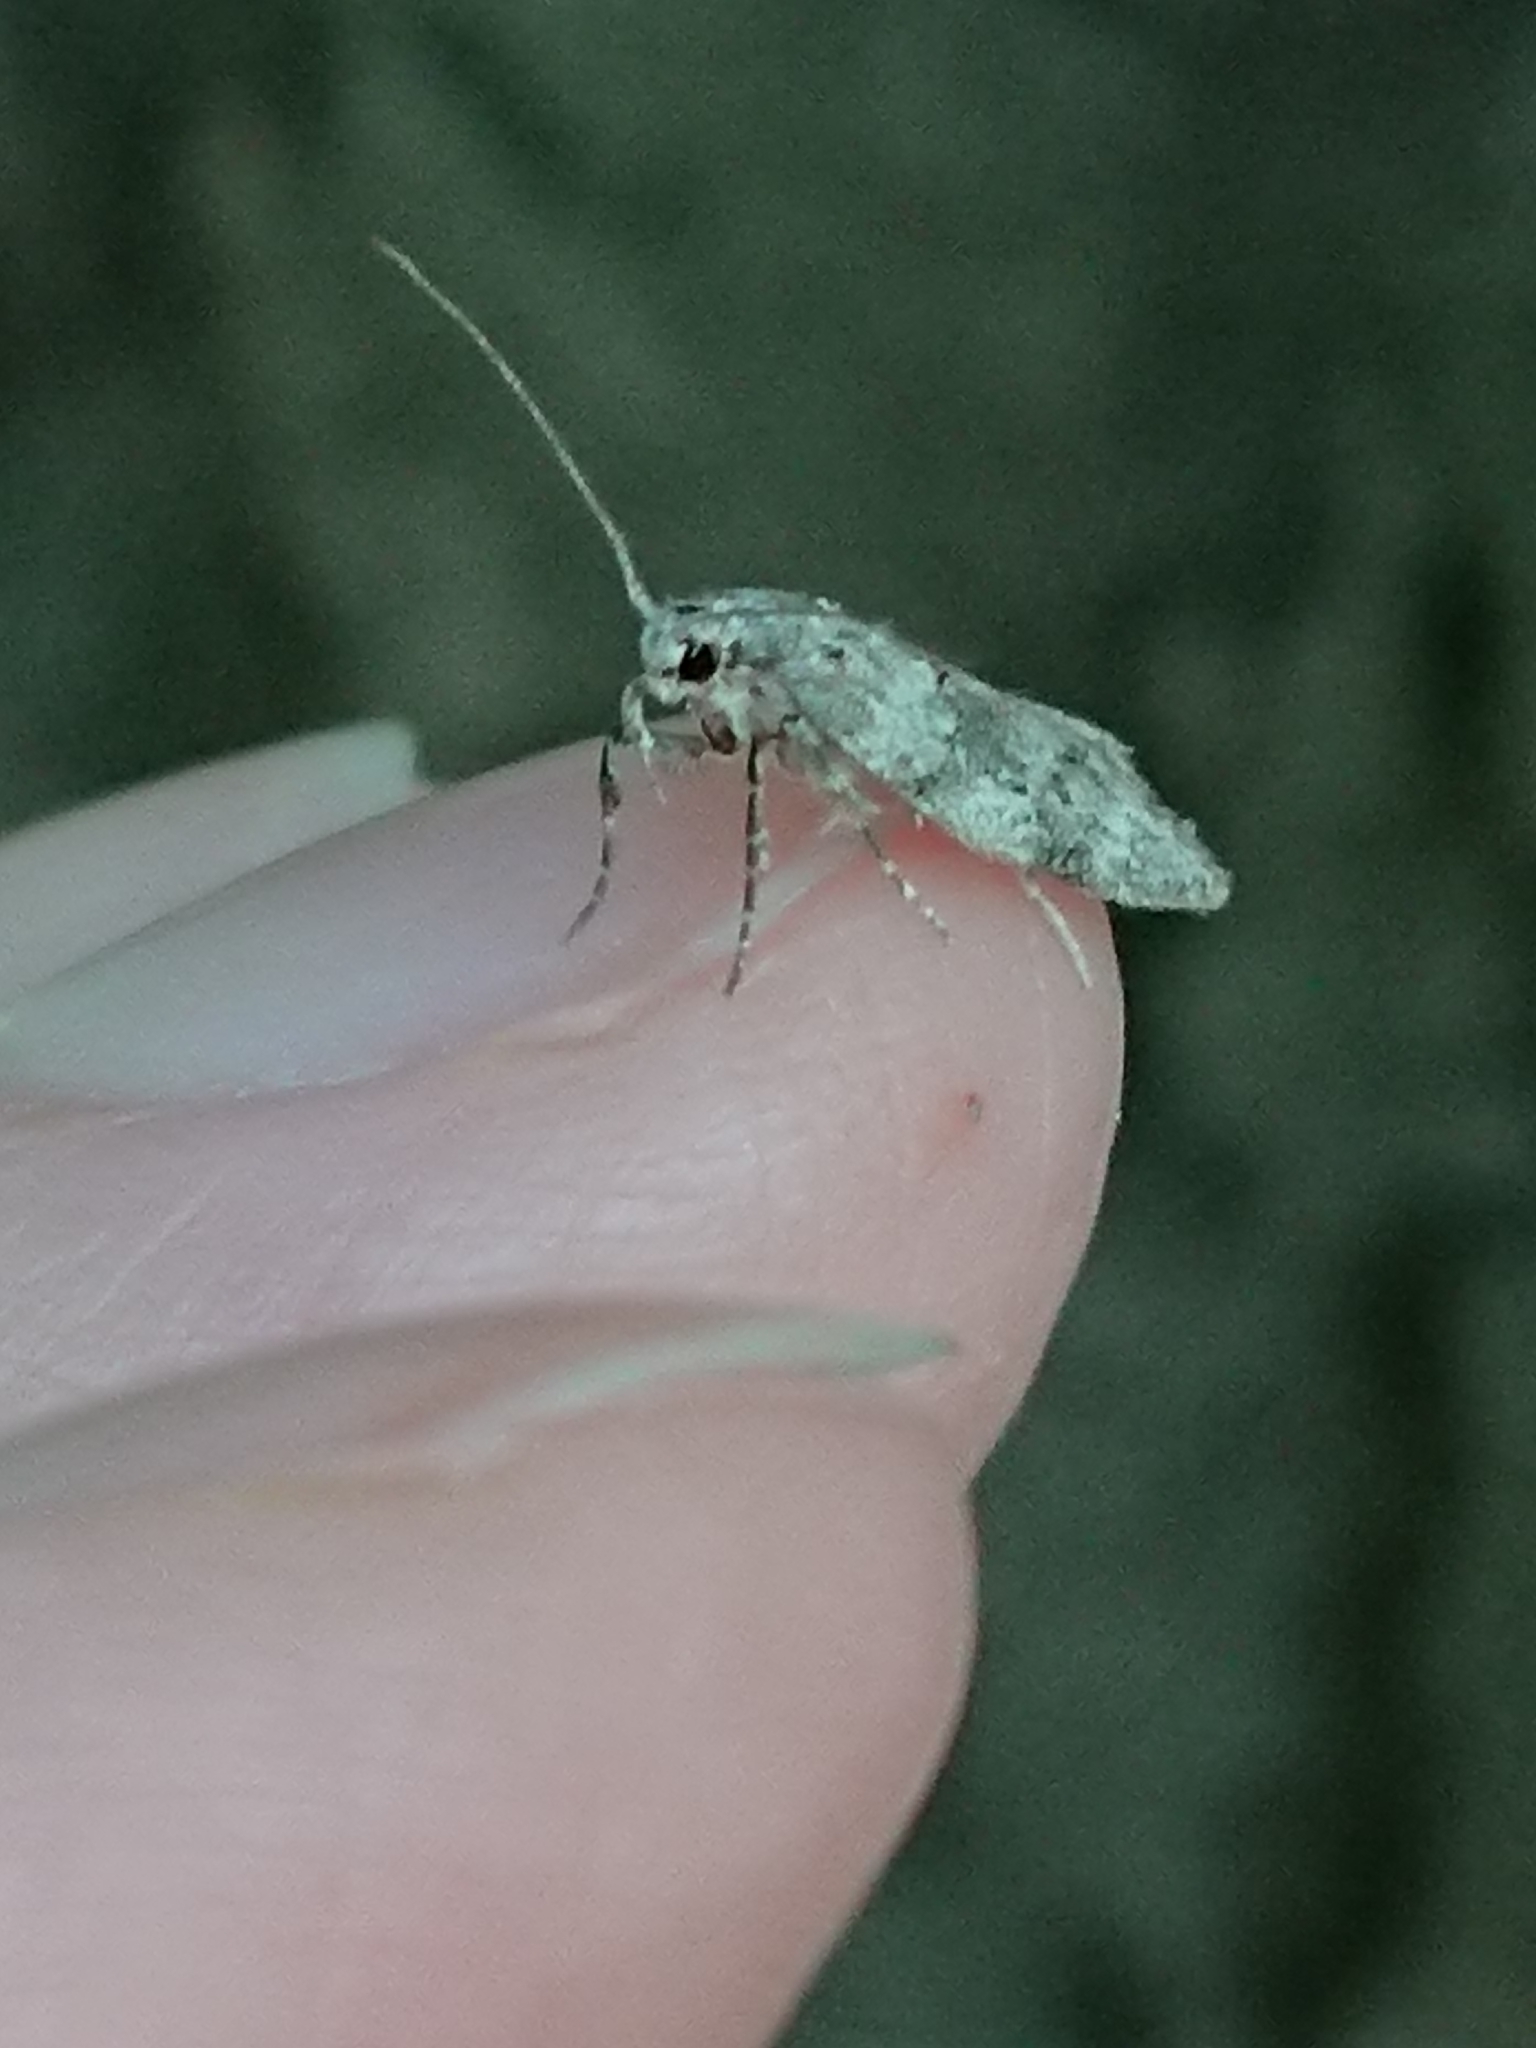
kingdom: Animalia
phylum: Arthropoda
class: Insecta
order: Lepidoptera
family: Oecophoridae
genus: Izatha
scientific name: Izatha convulsella
